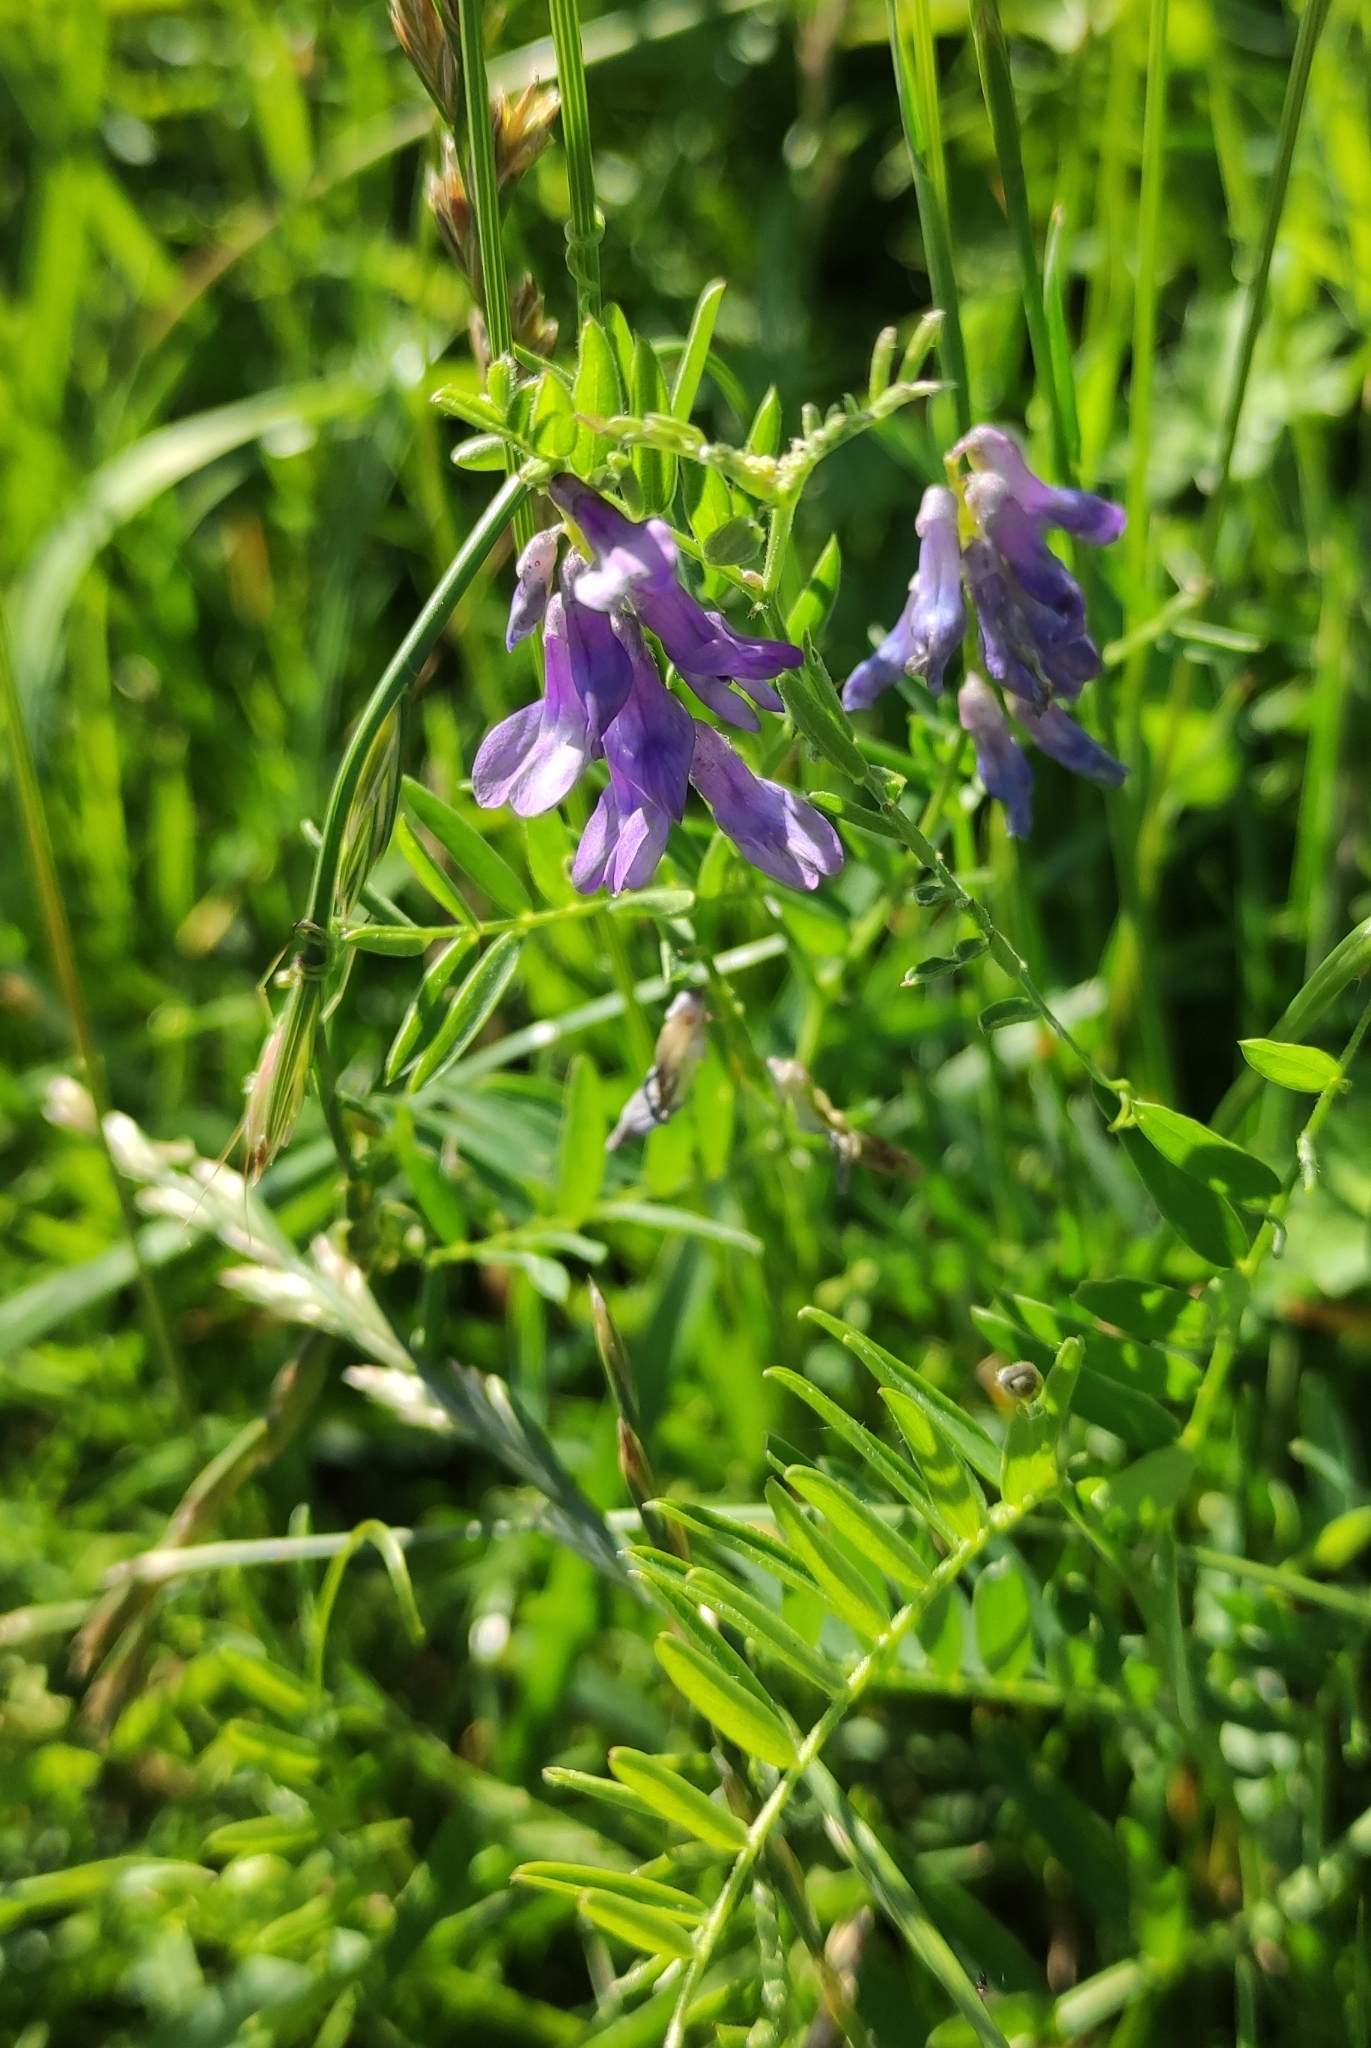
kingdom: Plantae
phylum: Tracheophyta
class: Magnoliopsida
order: Fabales
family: Fabaceae
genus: Vicia
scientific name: Vicia cracca
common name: Bird vetch
